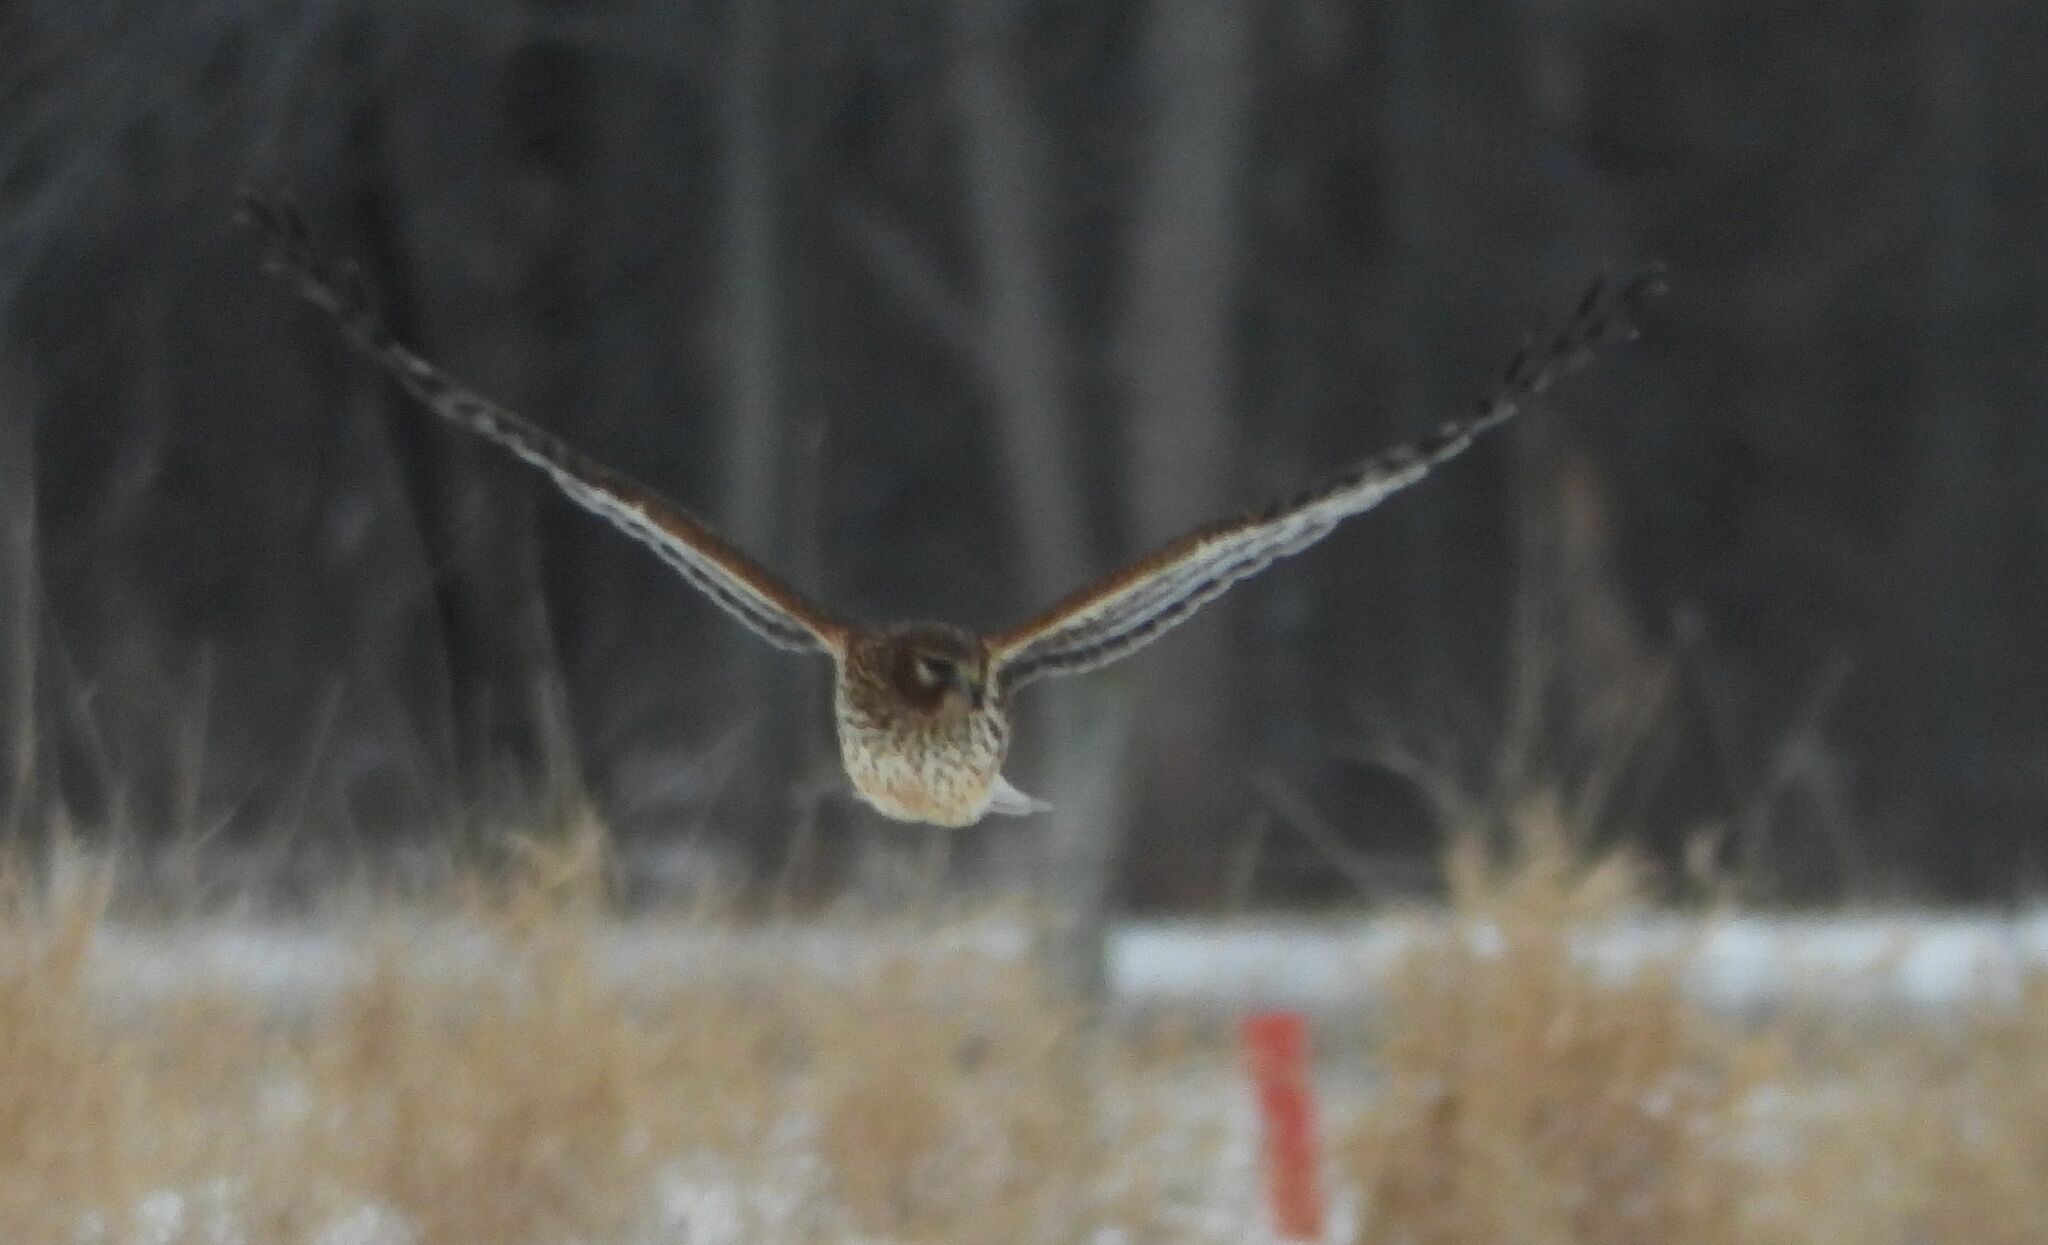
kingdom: Animalia
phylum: Chordata
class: Aves
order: Accipitriformes
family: Accipitridae
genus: Circus
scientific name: Circus cyaneus
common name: Hen harrier
